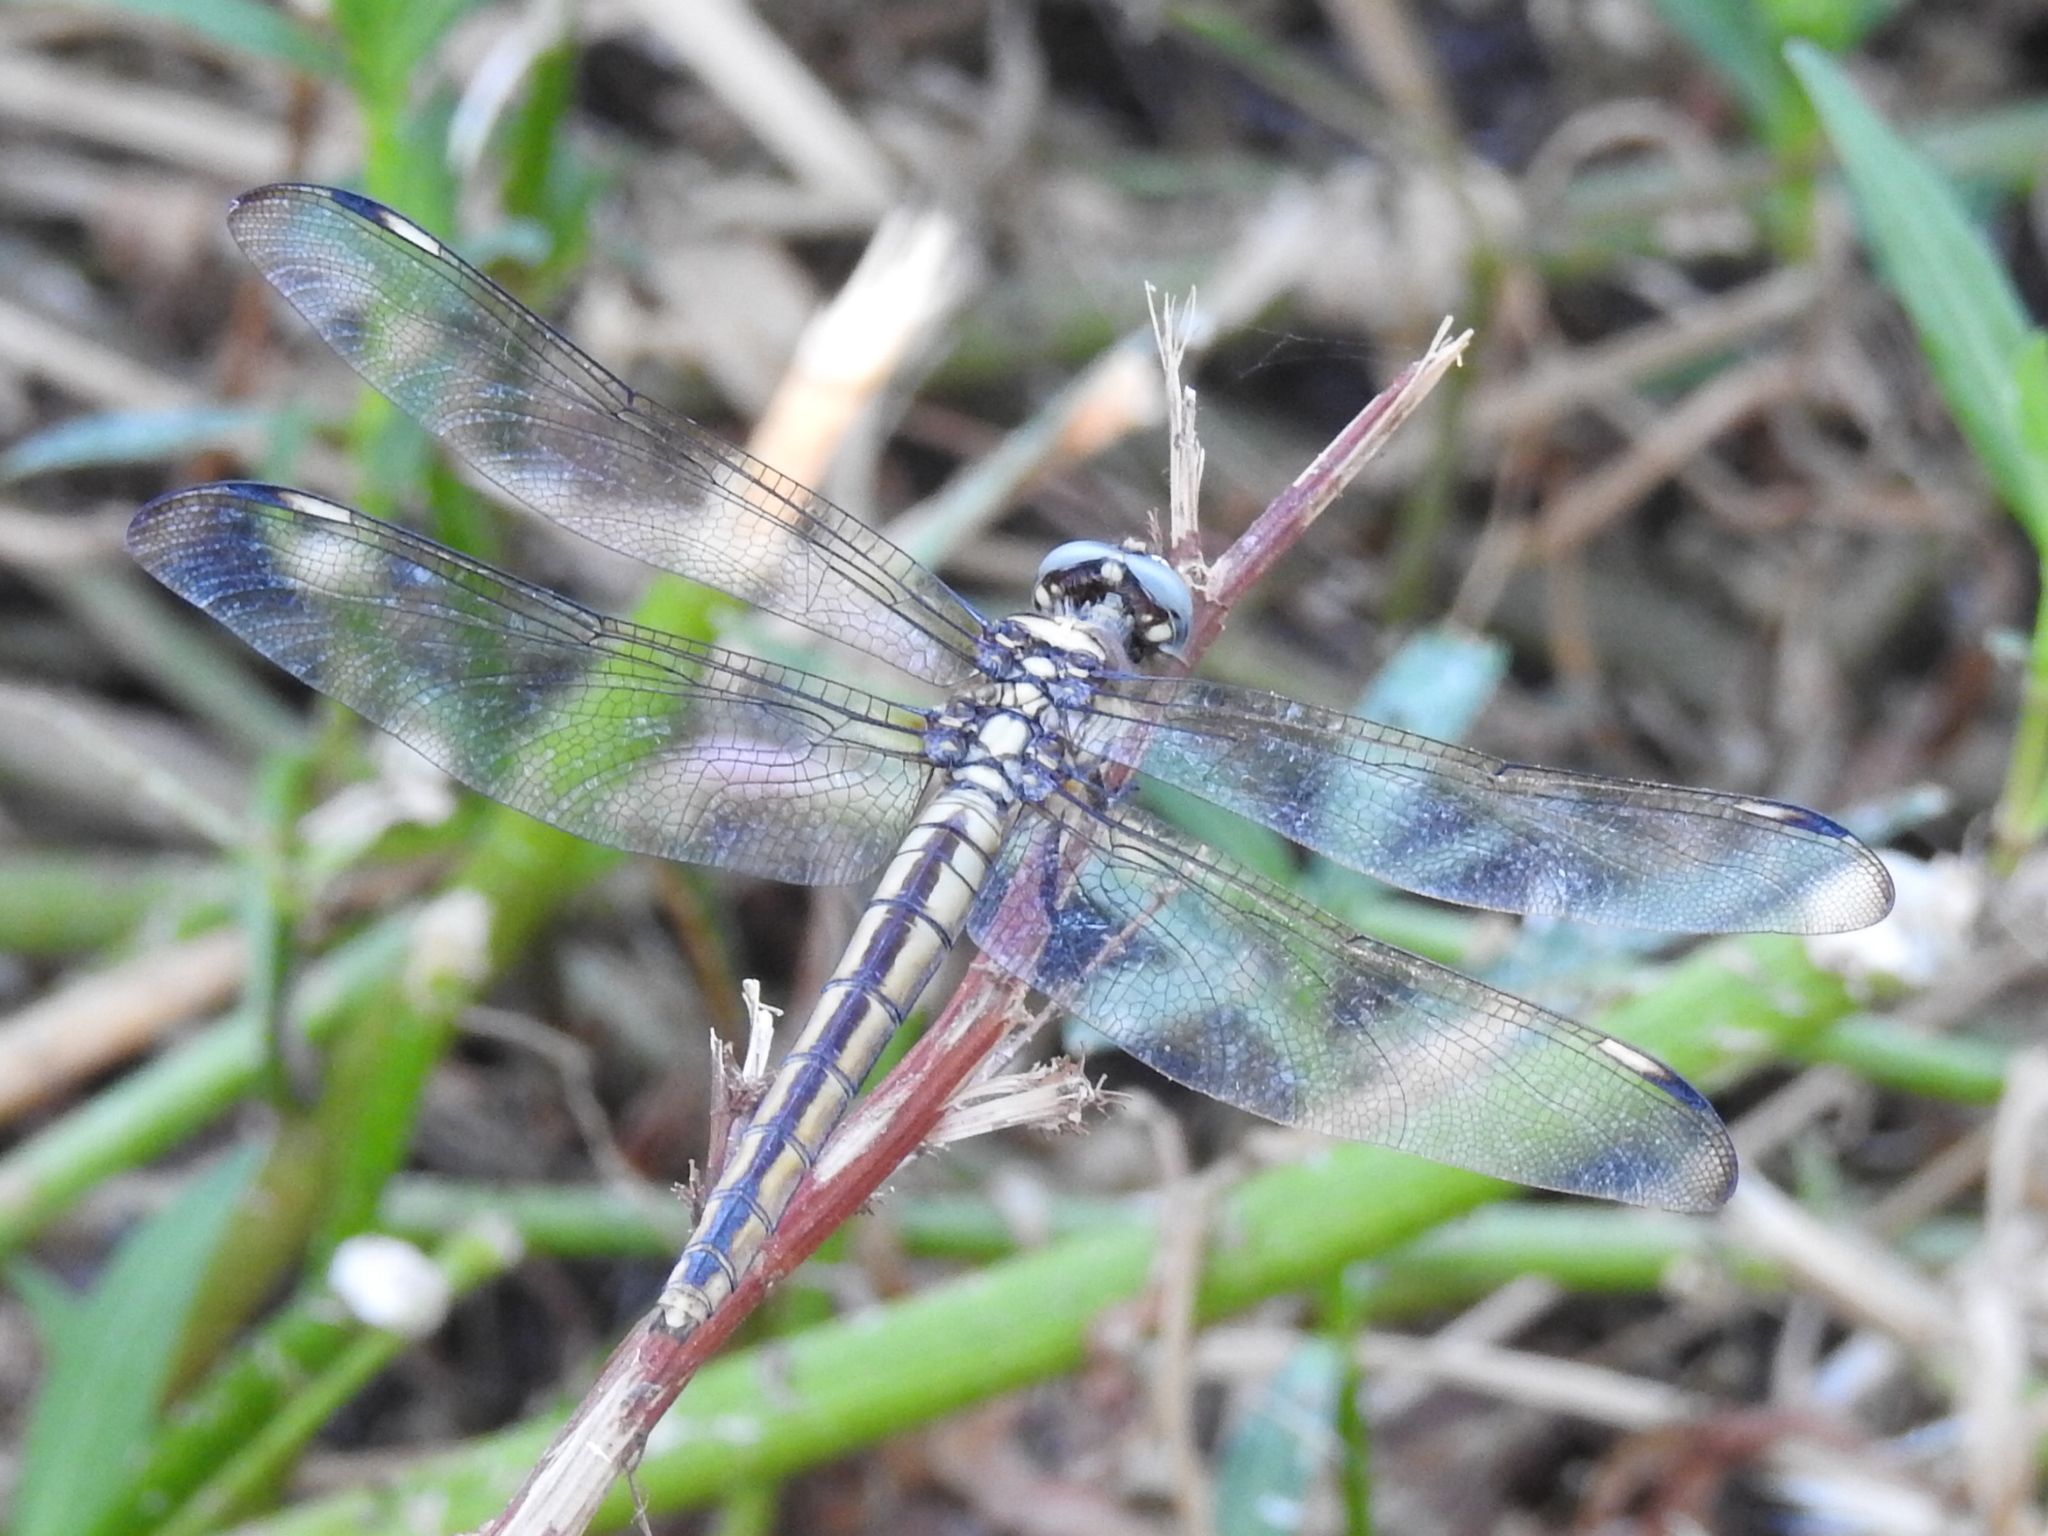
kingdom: Animalia
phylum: Arthropoda
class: Insecta
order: Odonata
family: Libellulidae
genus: Libellula
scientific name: Libellula comanche
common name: Comanche skimmer
